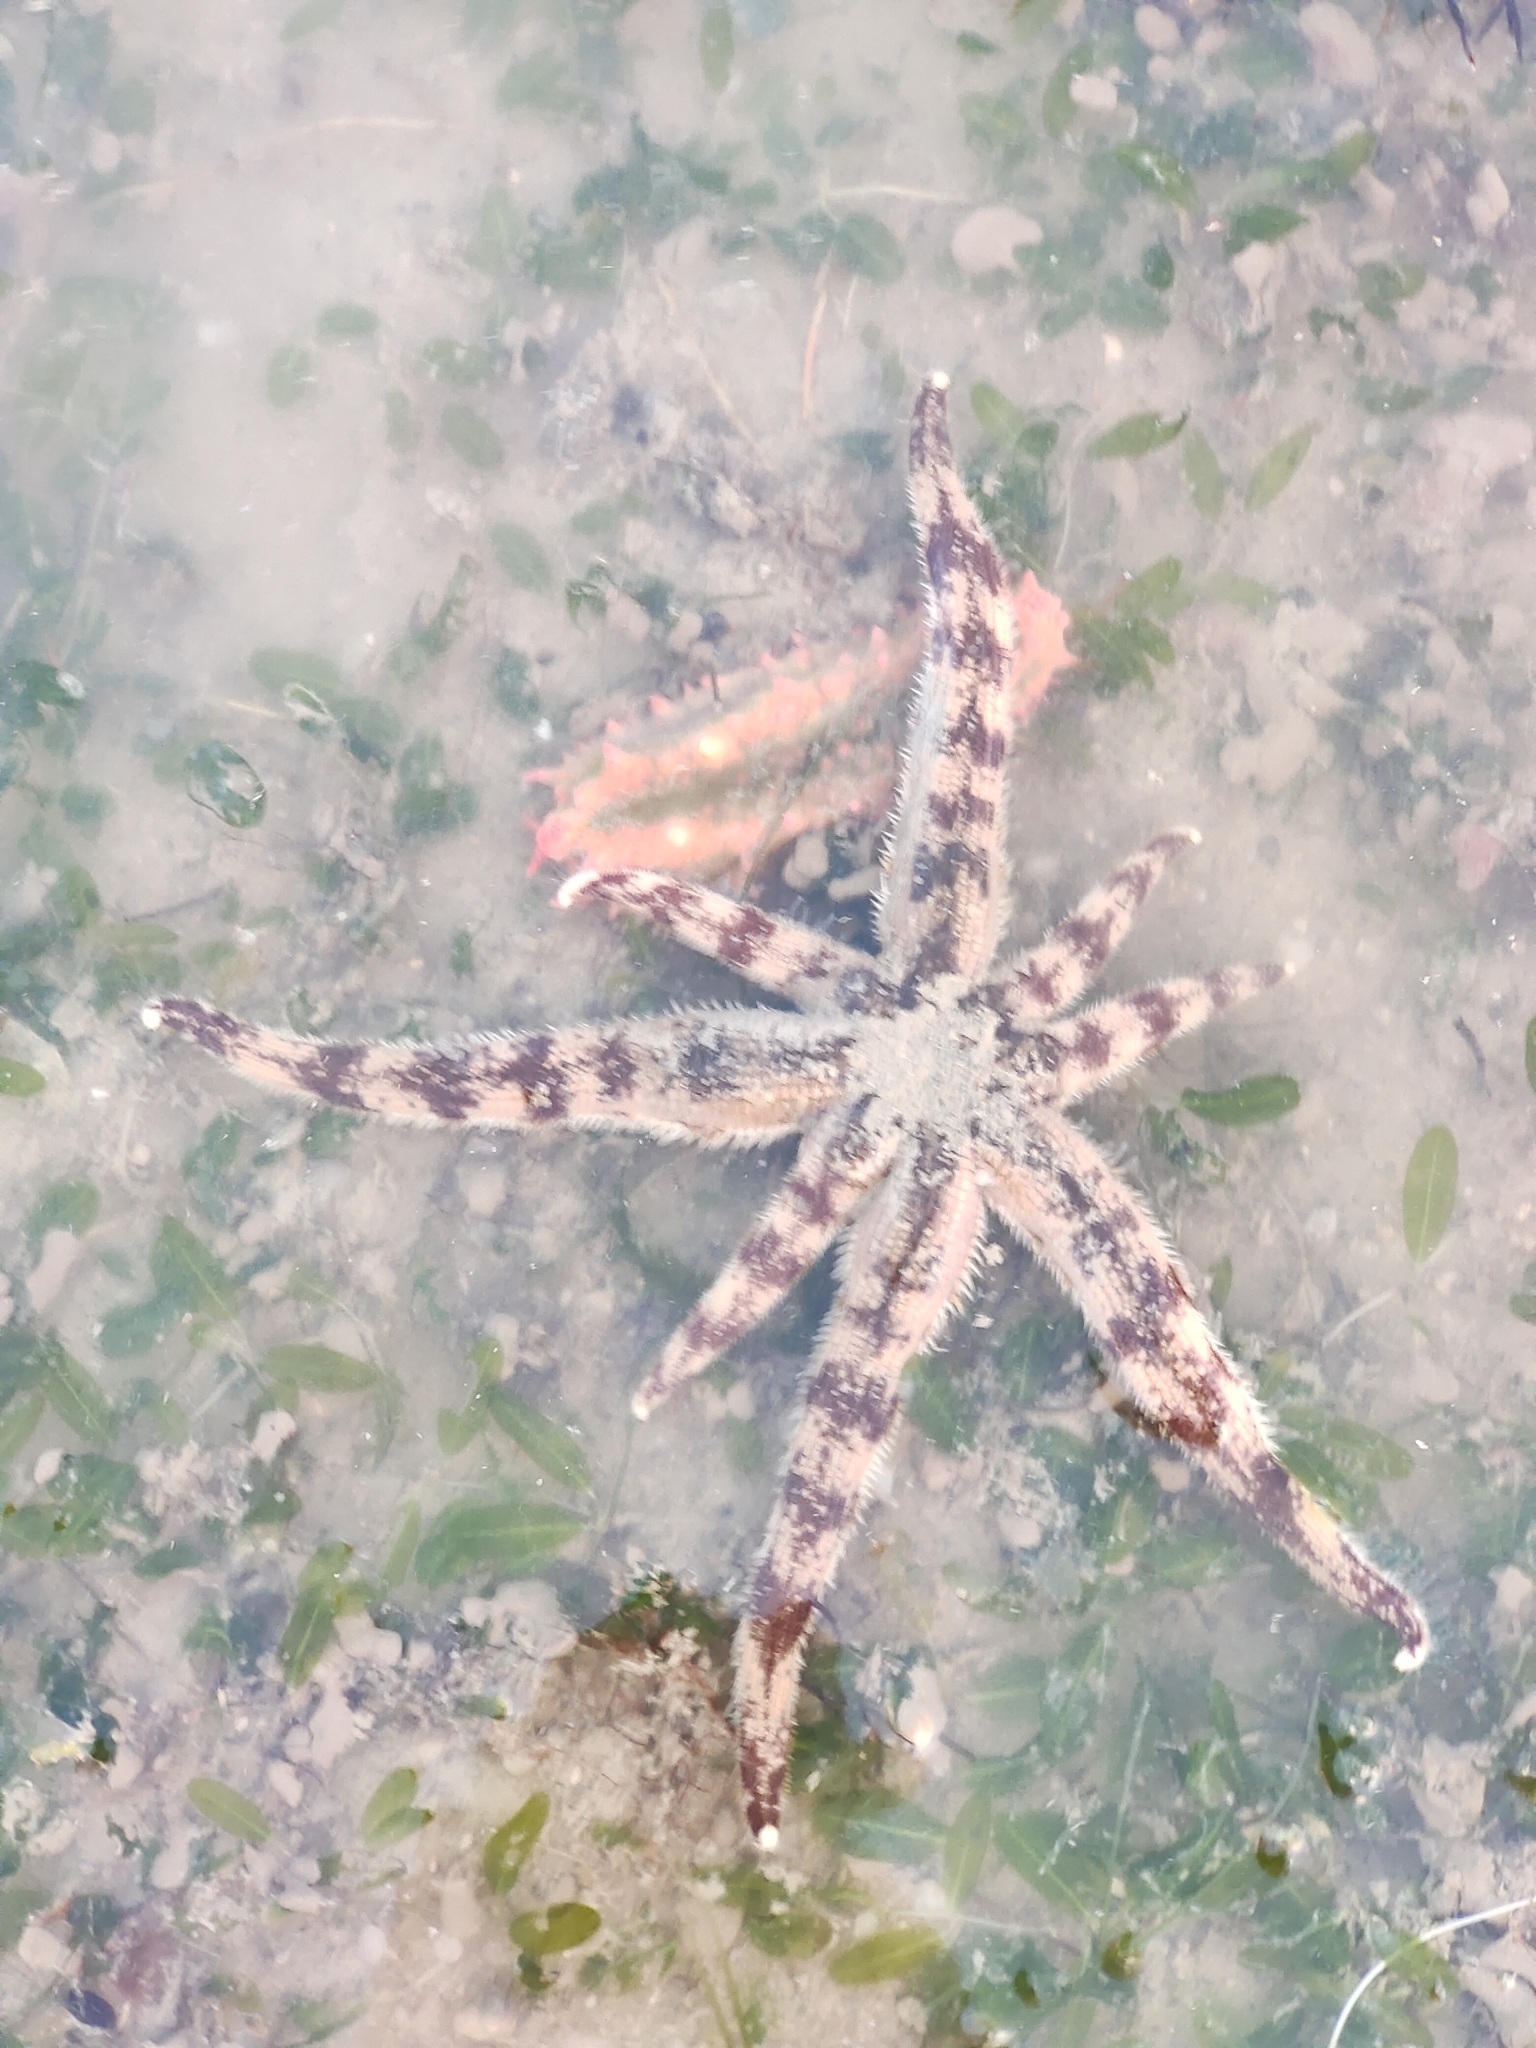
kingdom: Animalia
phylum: Echinodermata
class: Asteroidea
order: Paxillosida
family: Luidiidae
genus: Luidia
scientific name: Luidia maculata
